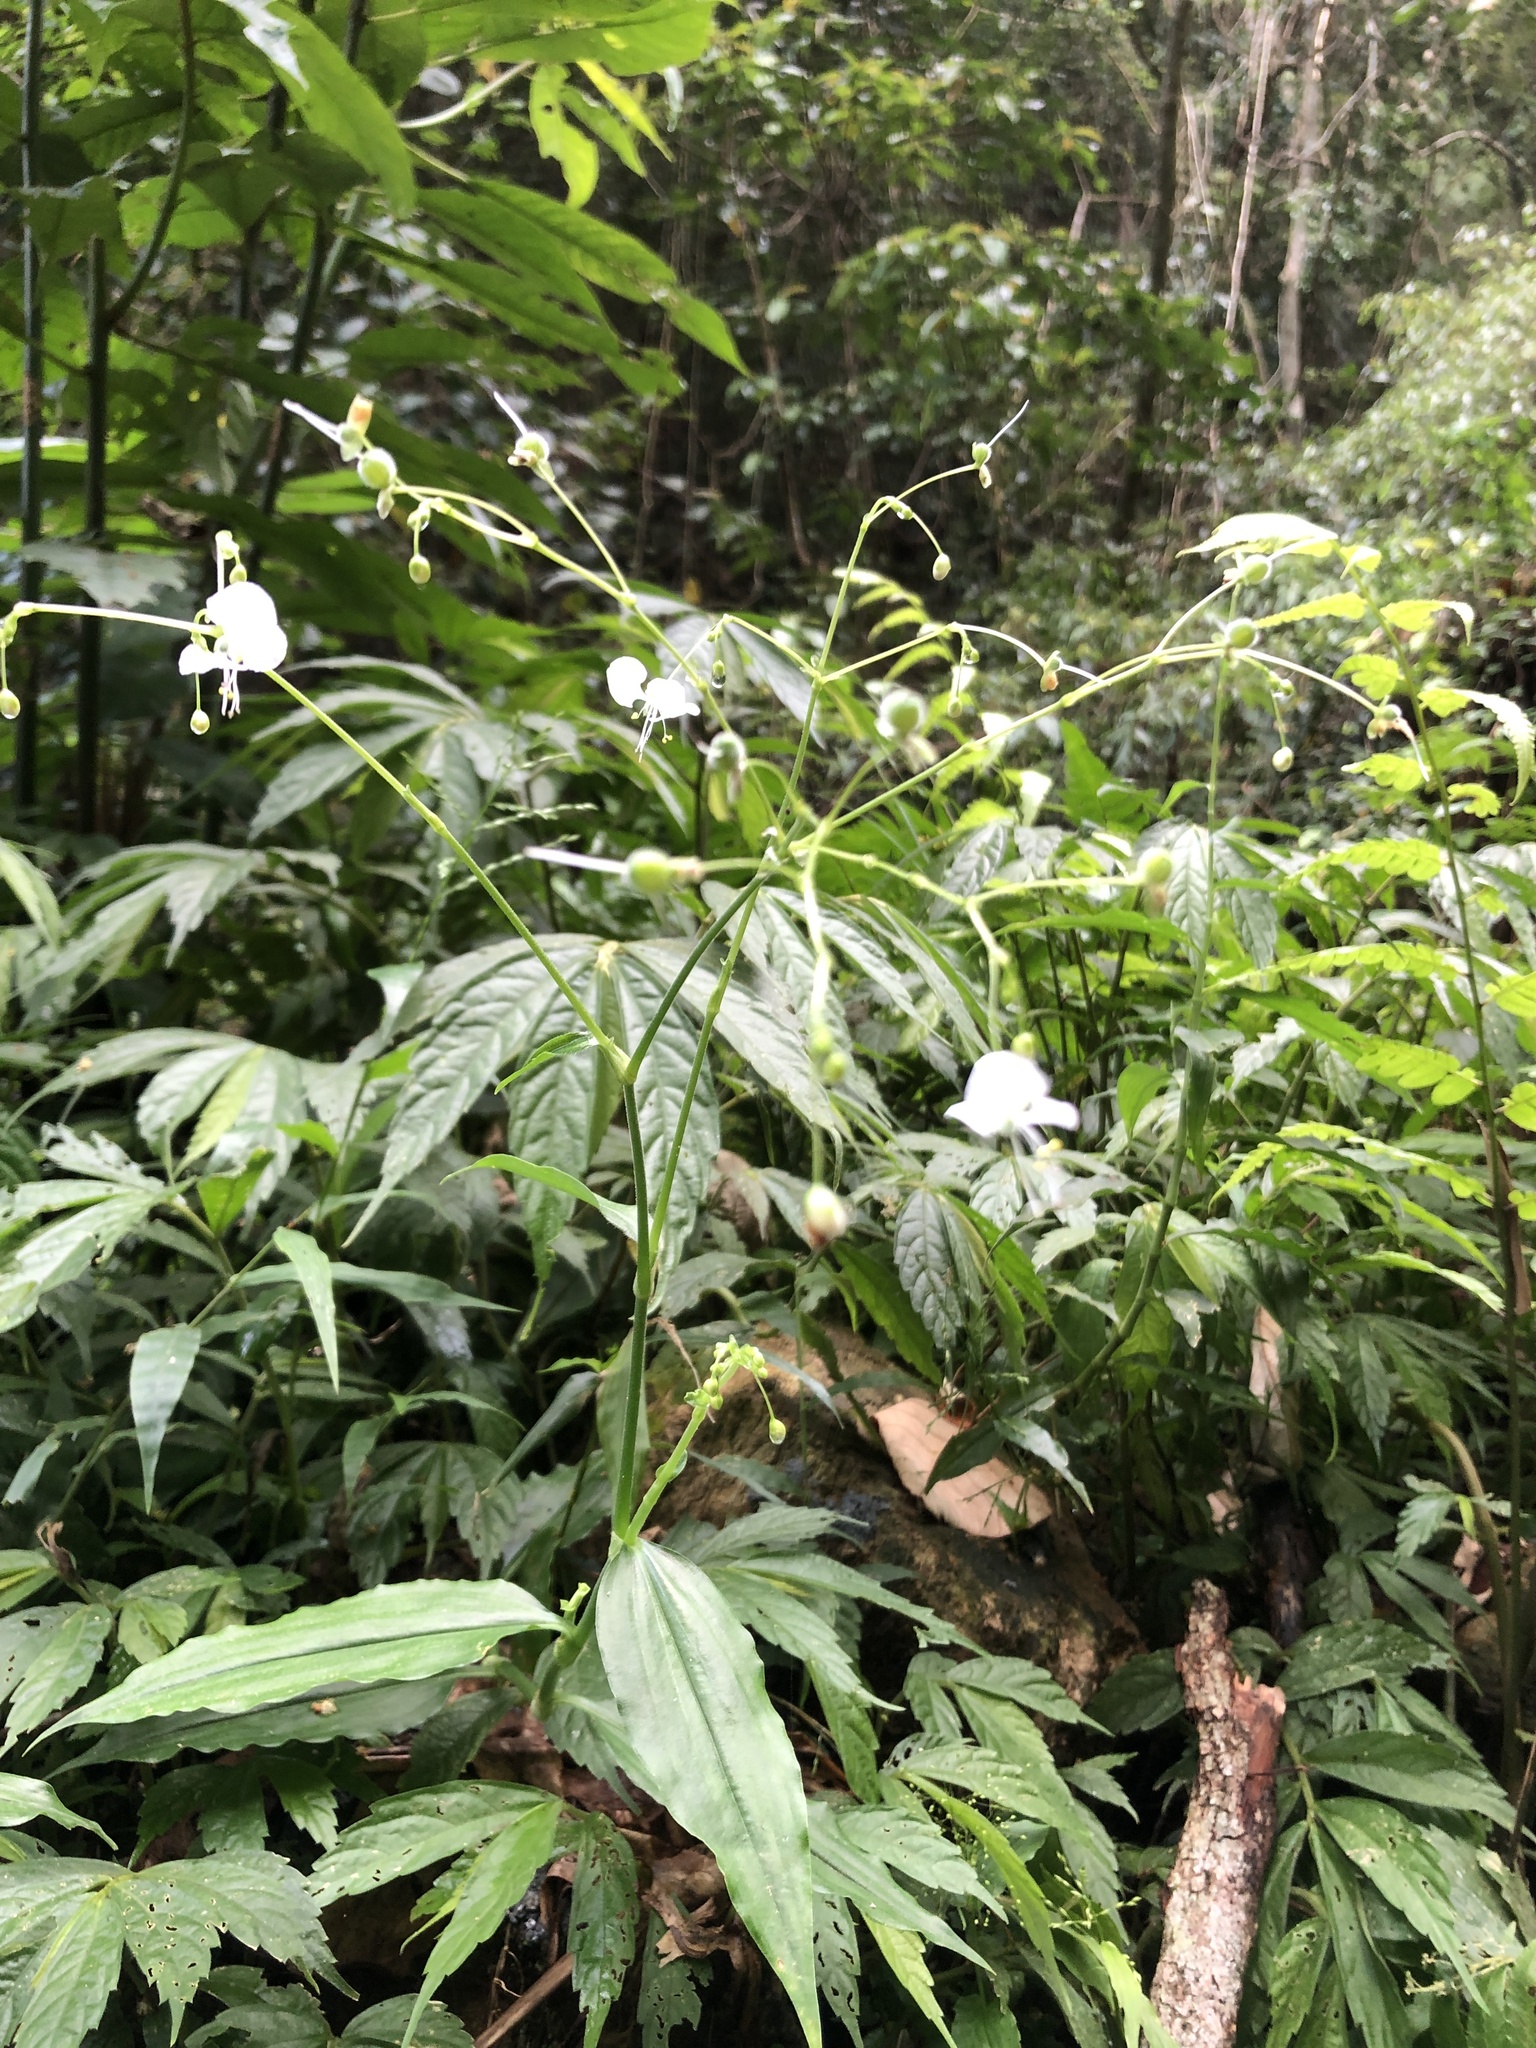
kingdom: Plantae
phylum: Tracheophyta
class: Liliopsida
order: Commelinales
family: Commelinaceae
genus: Rhopalephora
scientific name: Rhopalephora scaberrima
